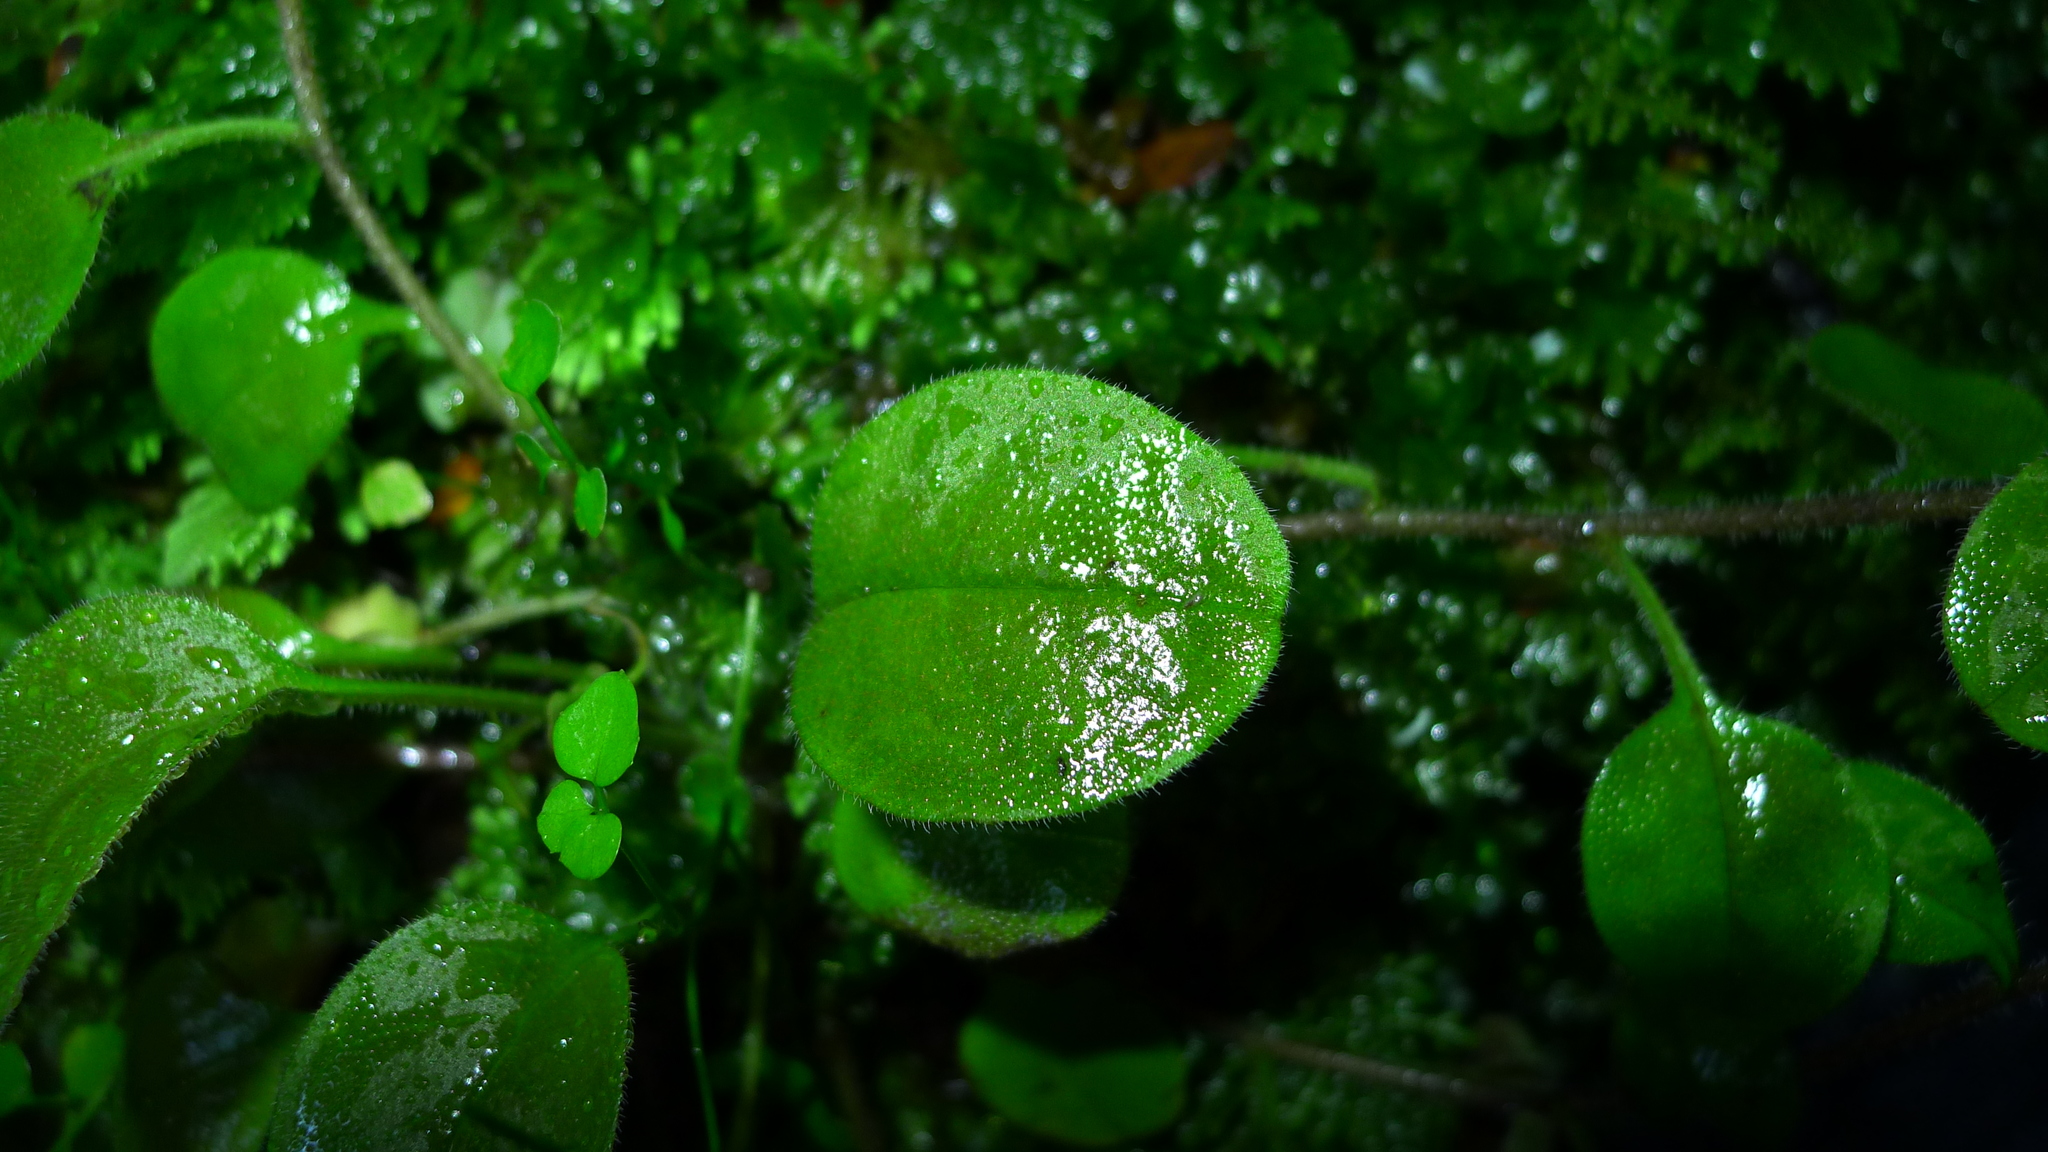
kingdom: Plantae
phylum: Tracheophyta
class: Magnoliopsida
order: Boraginales
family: Boraginaceae
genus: Myosotis
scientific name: Myosotis forsteri
